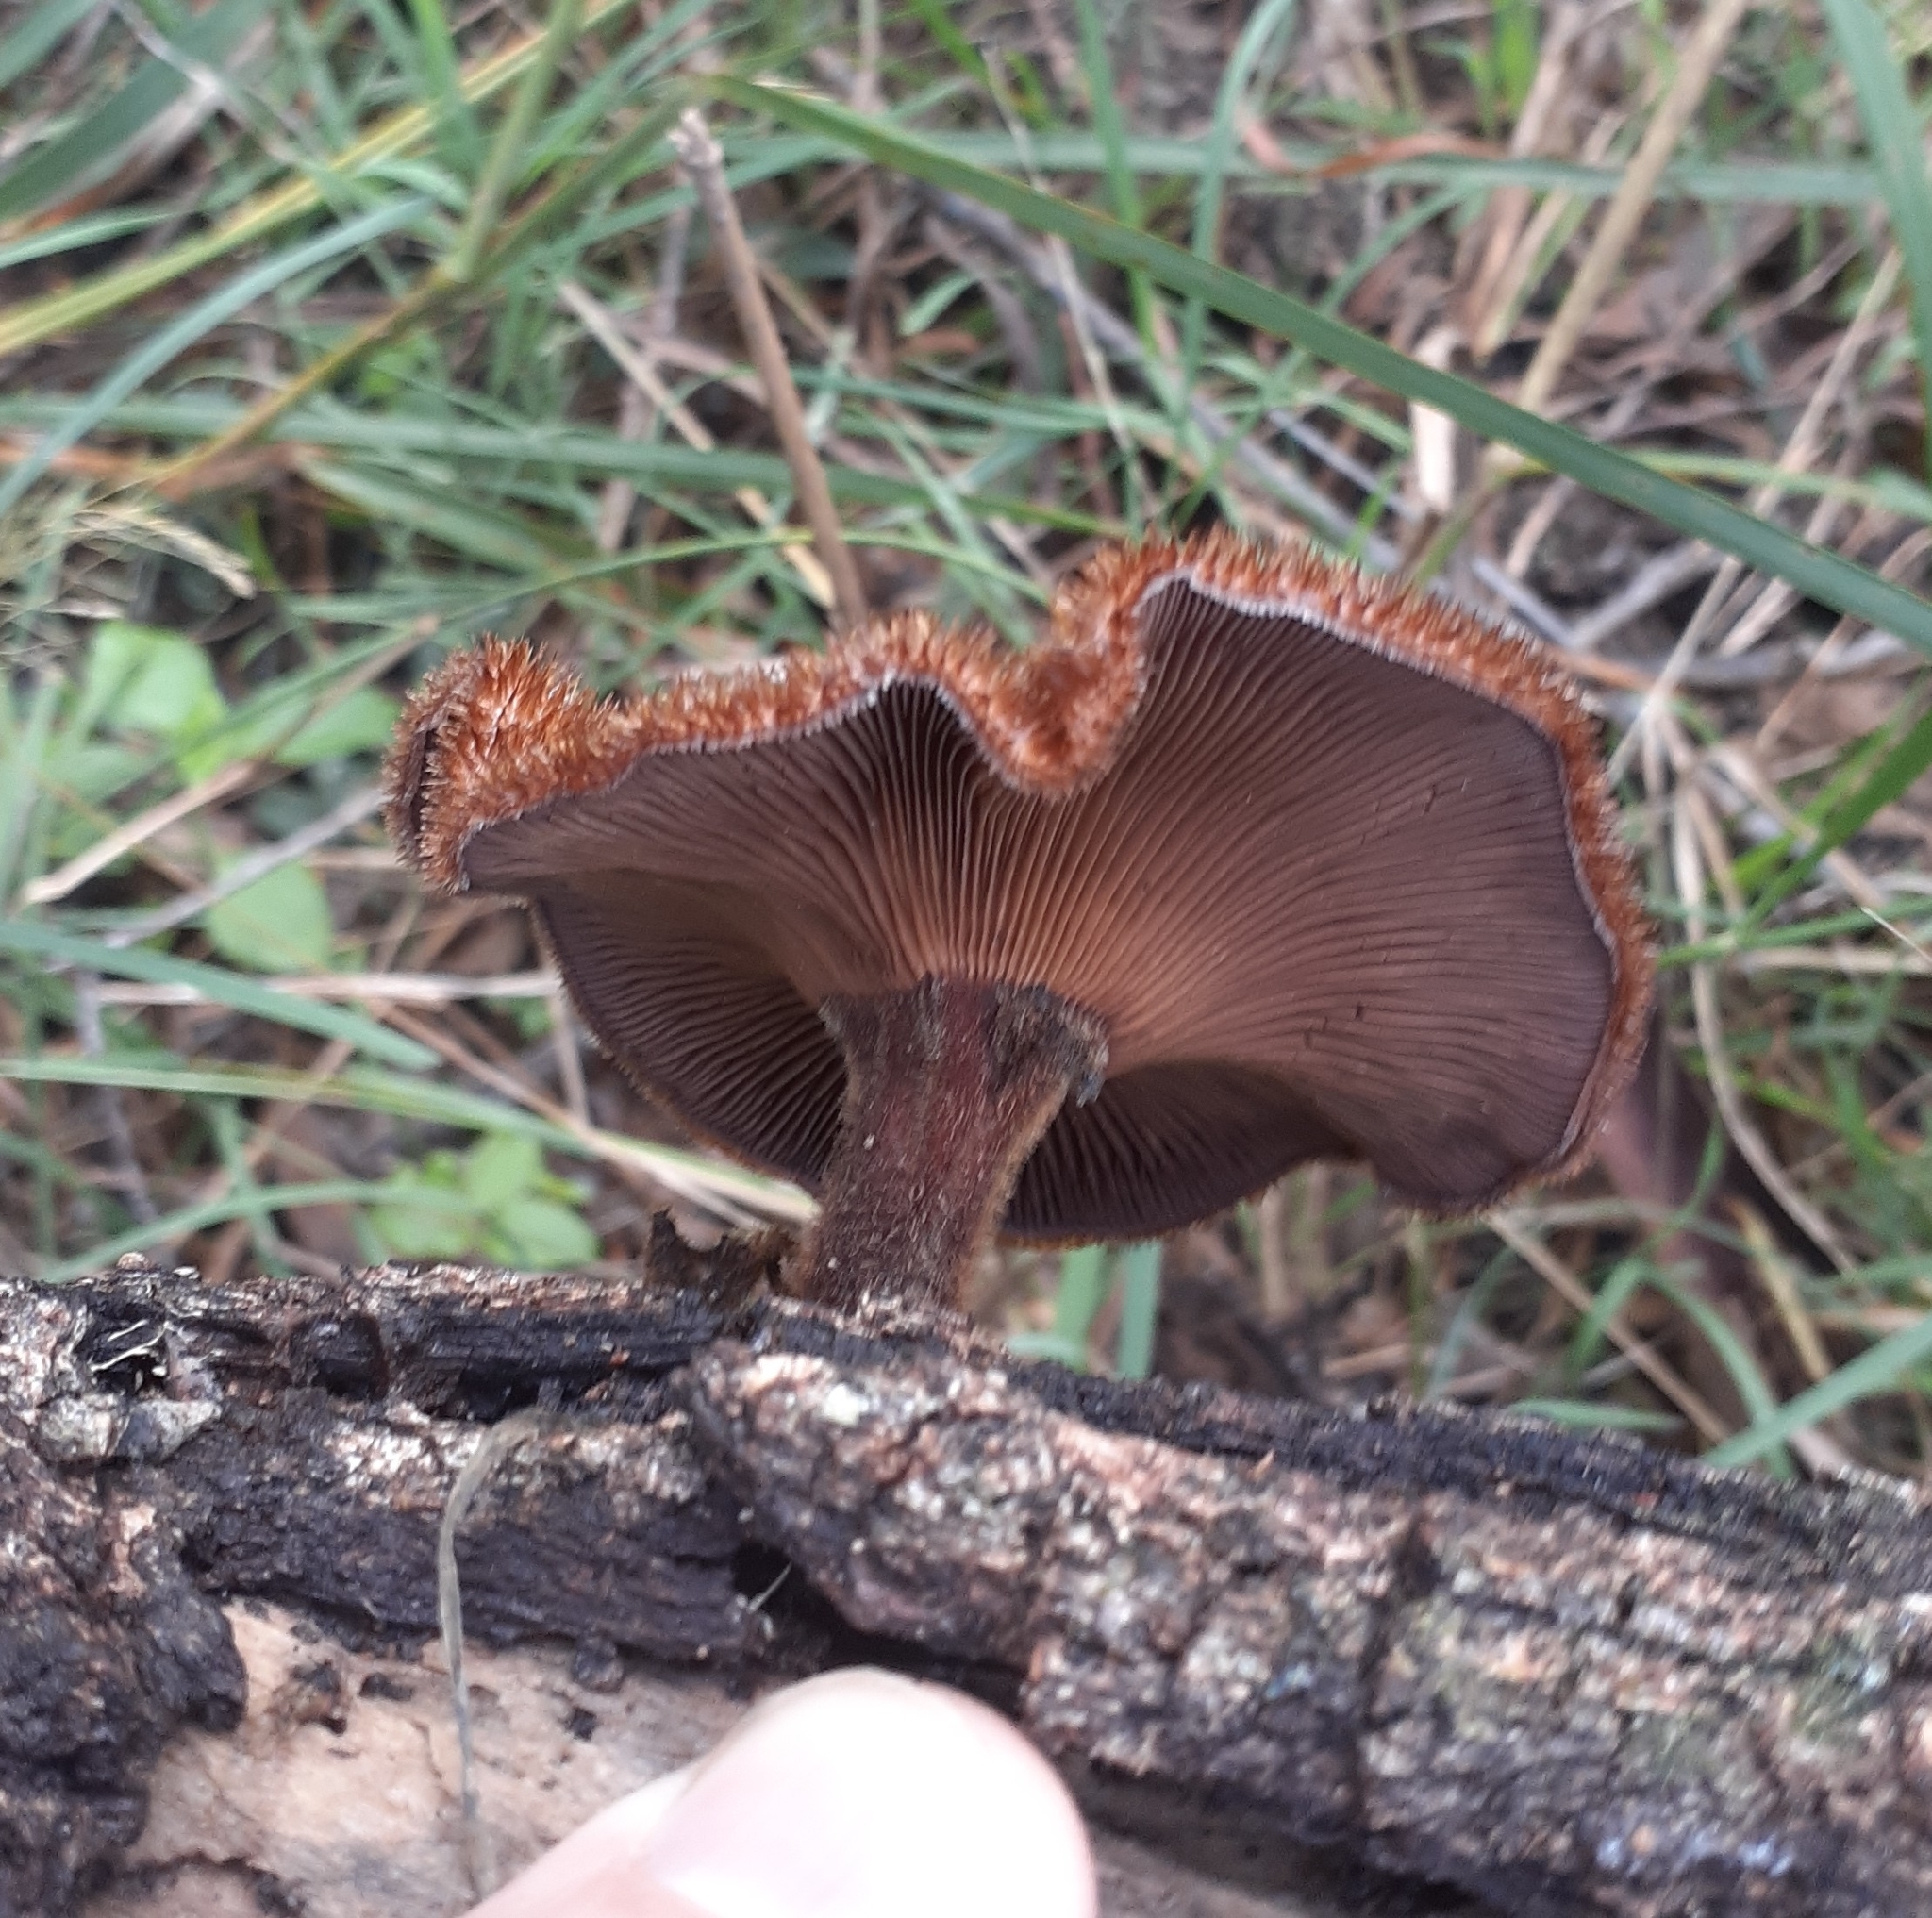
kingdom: Fungi
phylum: Basidiomycota
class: Agaricomycetes
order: Polyporales
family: Polyporaceae
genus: Lentinus
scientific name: Lentinus fasciatus
